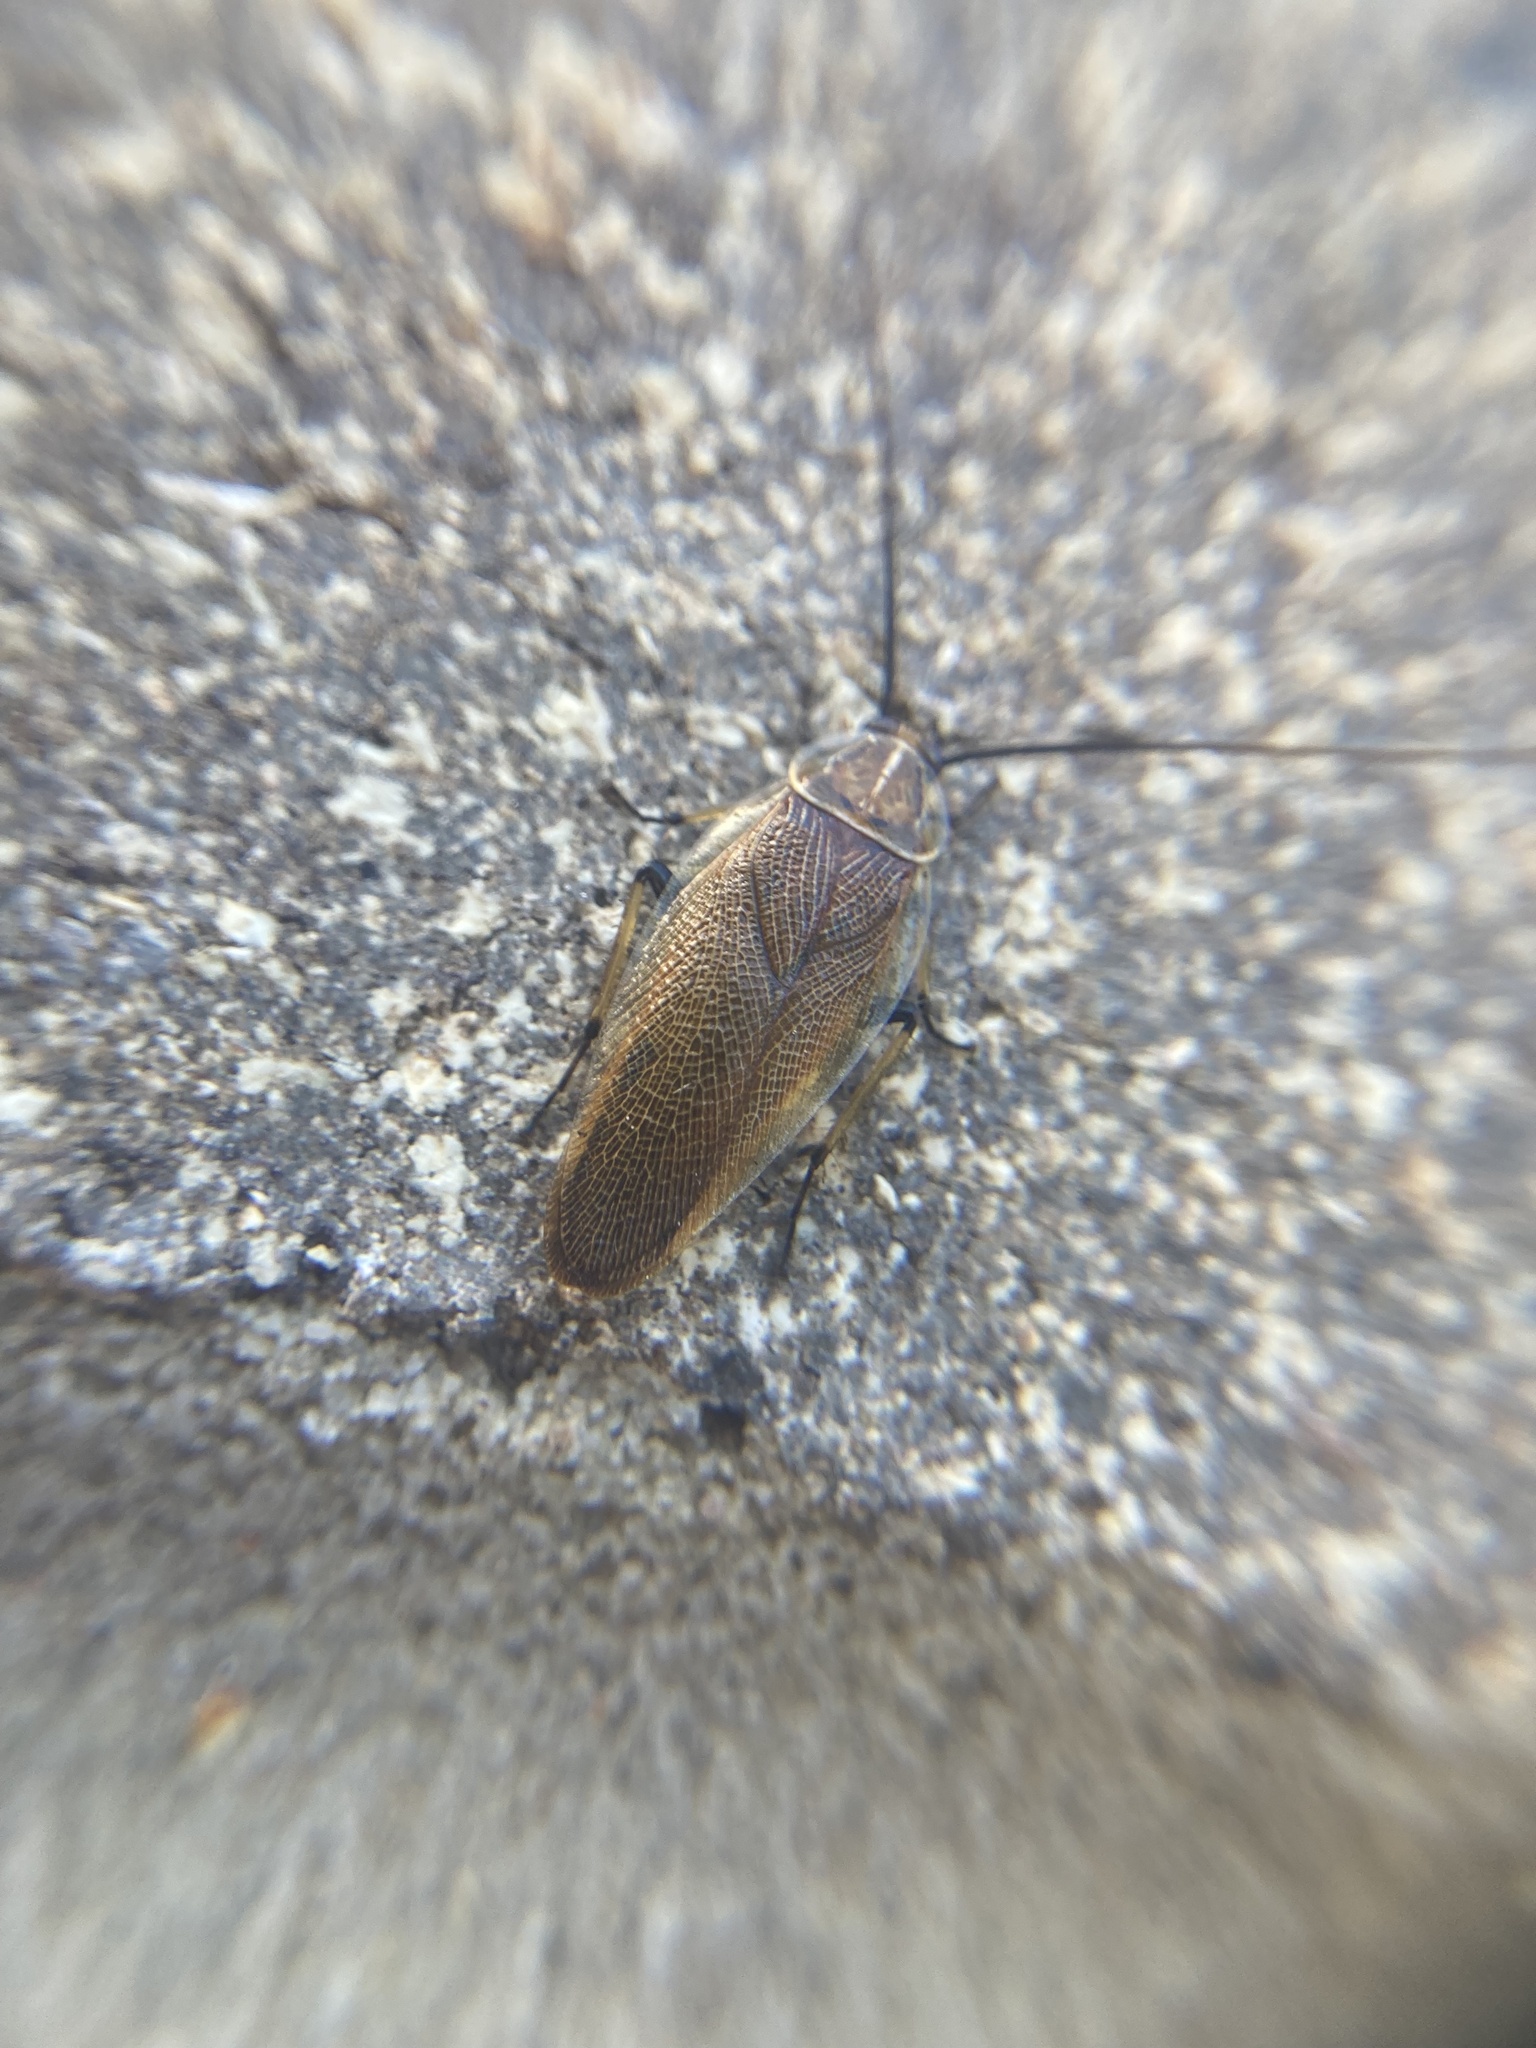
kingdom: Animalia
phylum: Arthropoda
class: Insecta
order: Blattodea
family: Ectobiidae
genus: Balta
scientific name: Balta bicolor
